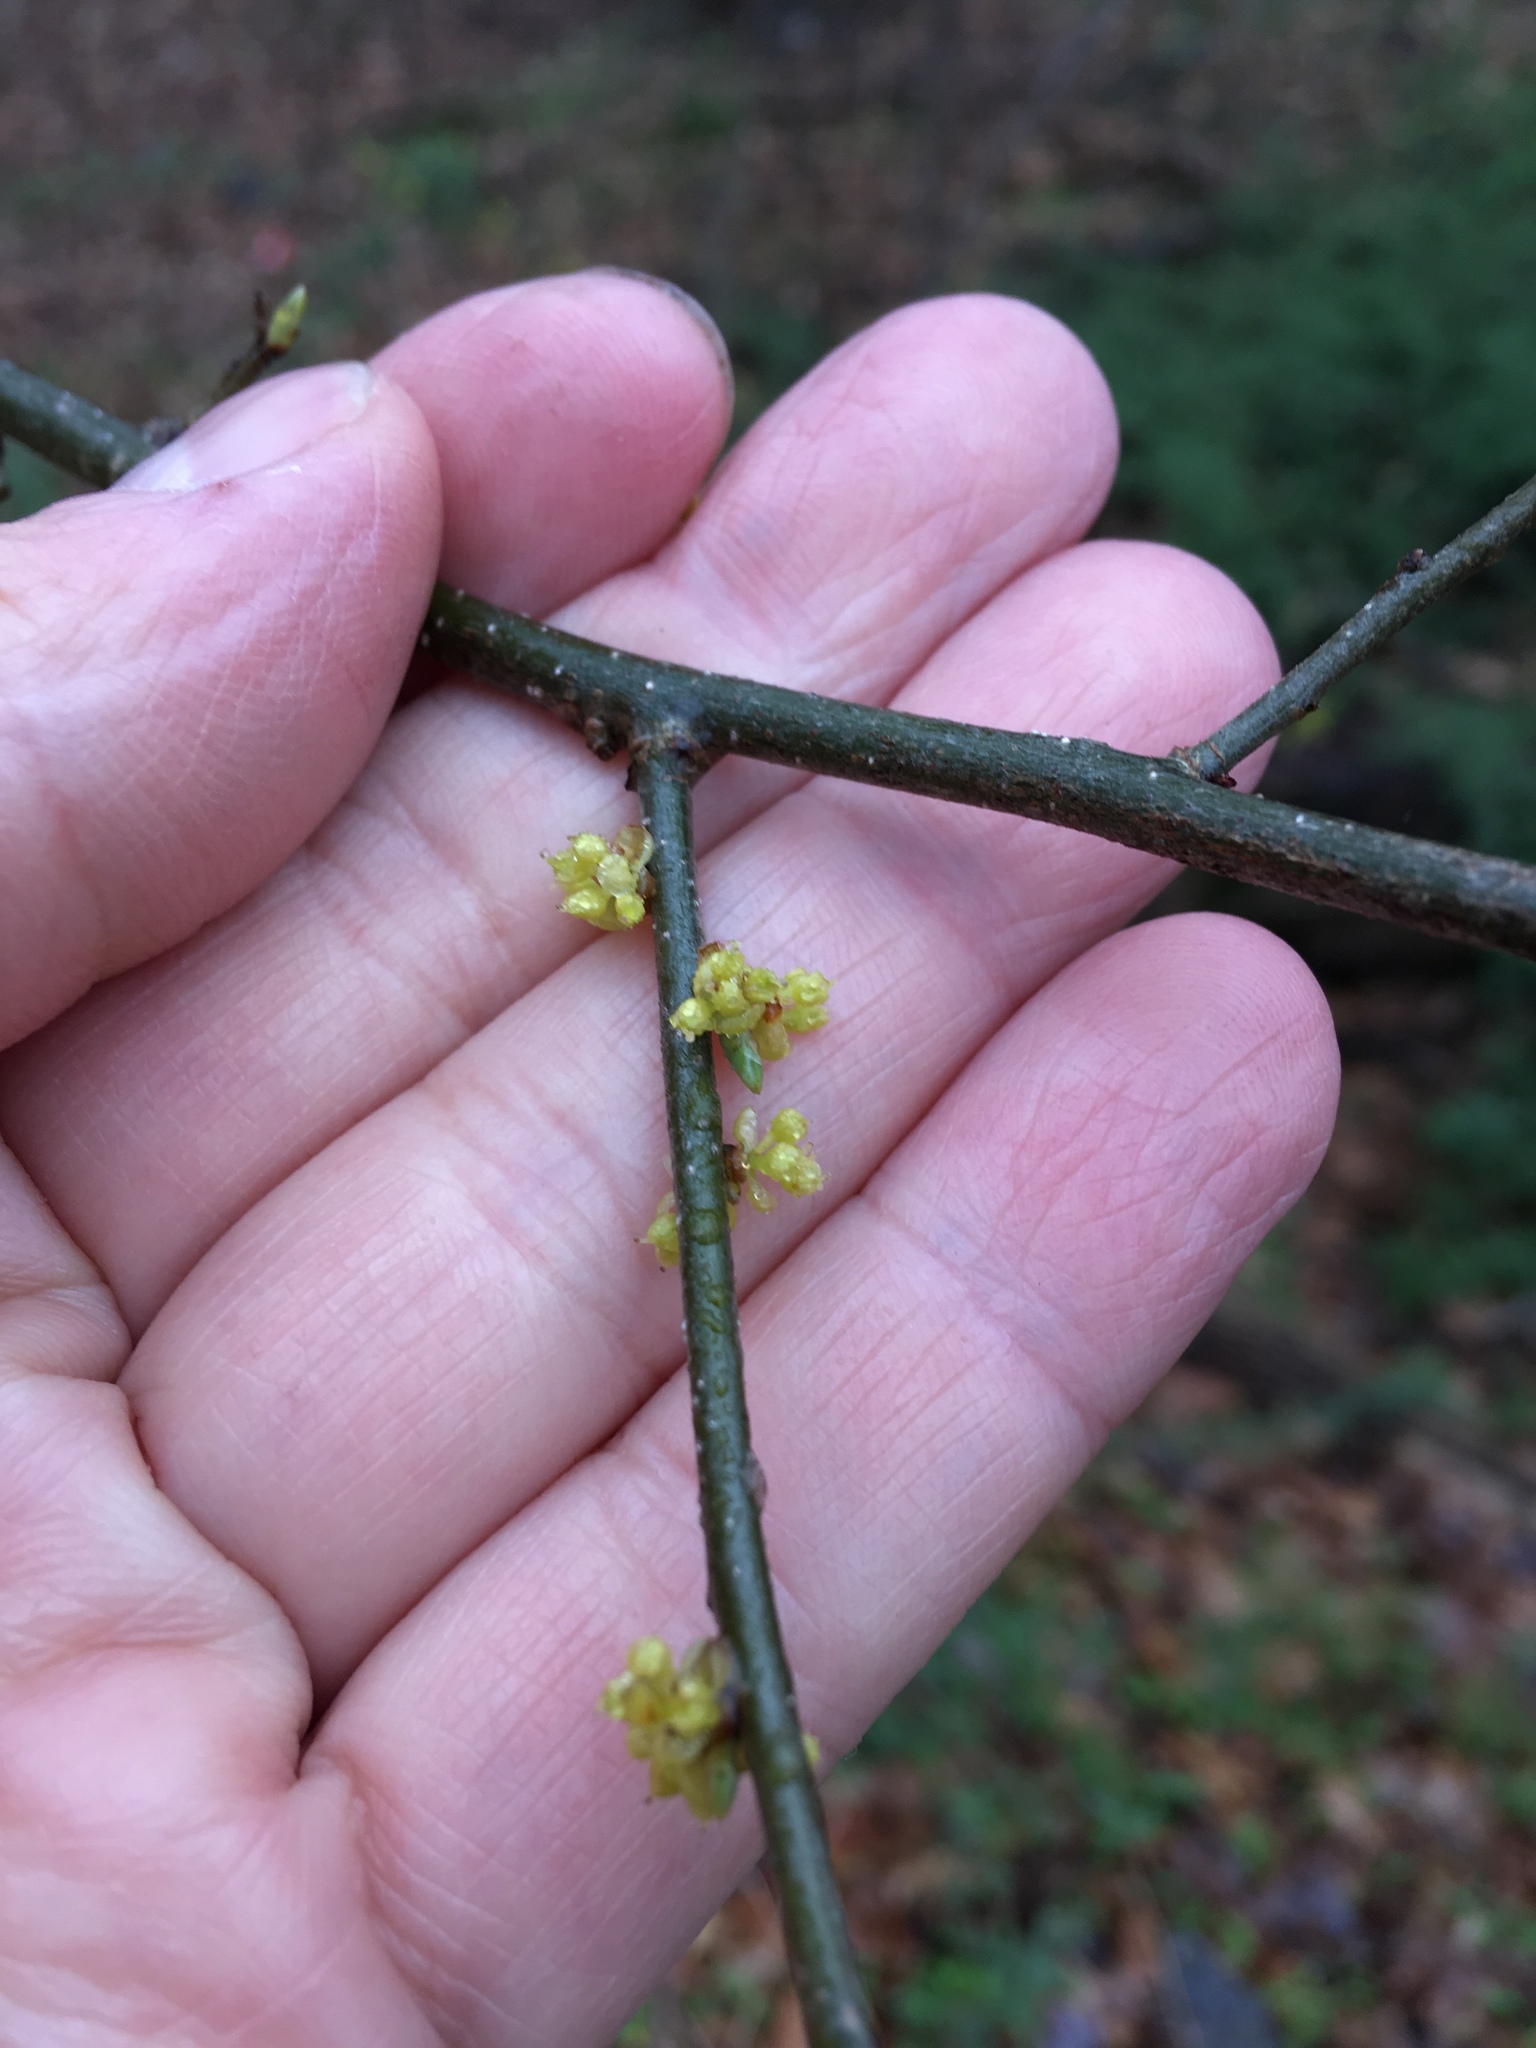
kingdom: Plantae
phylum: Tracheophyta
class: Magnoliopsida
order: Laurales
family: Lauraceae
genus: Lindera
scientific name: Lindera benzoin
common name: Spicebush
